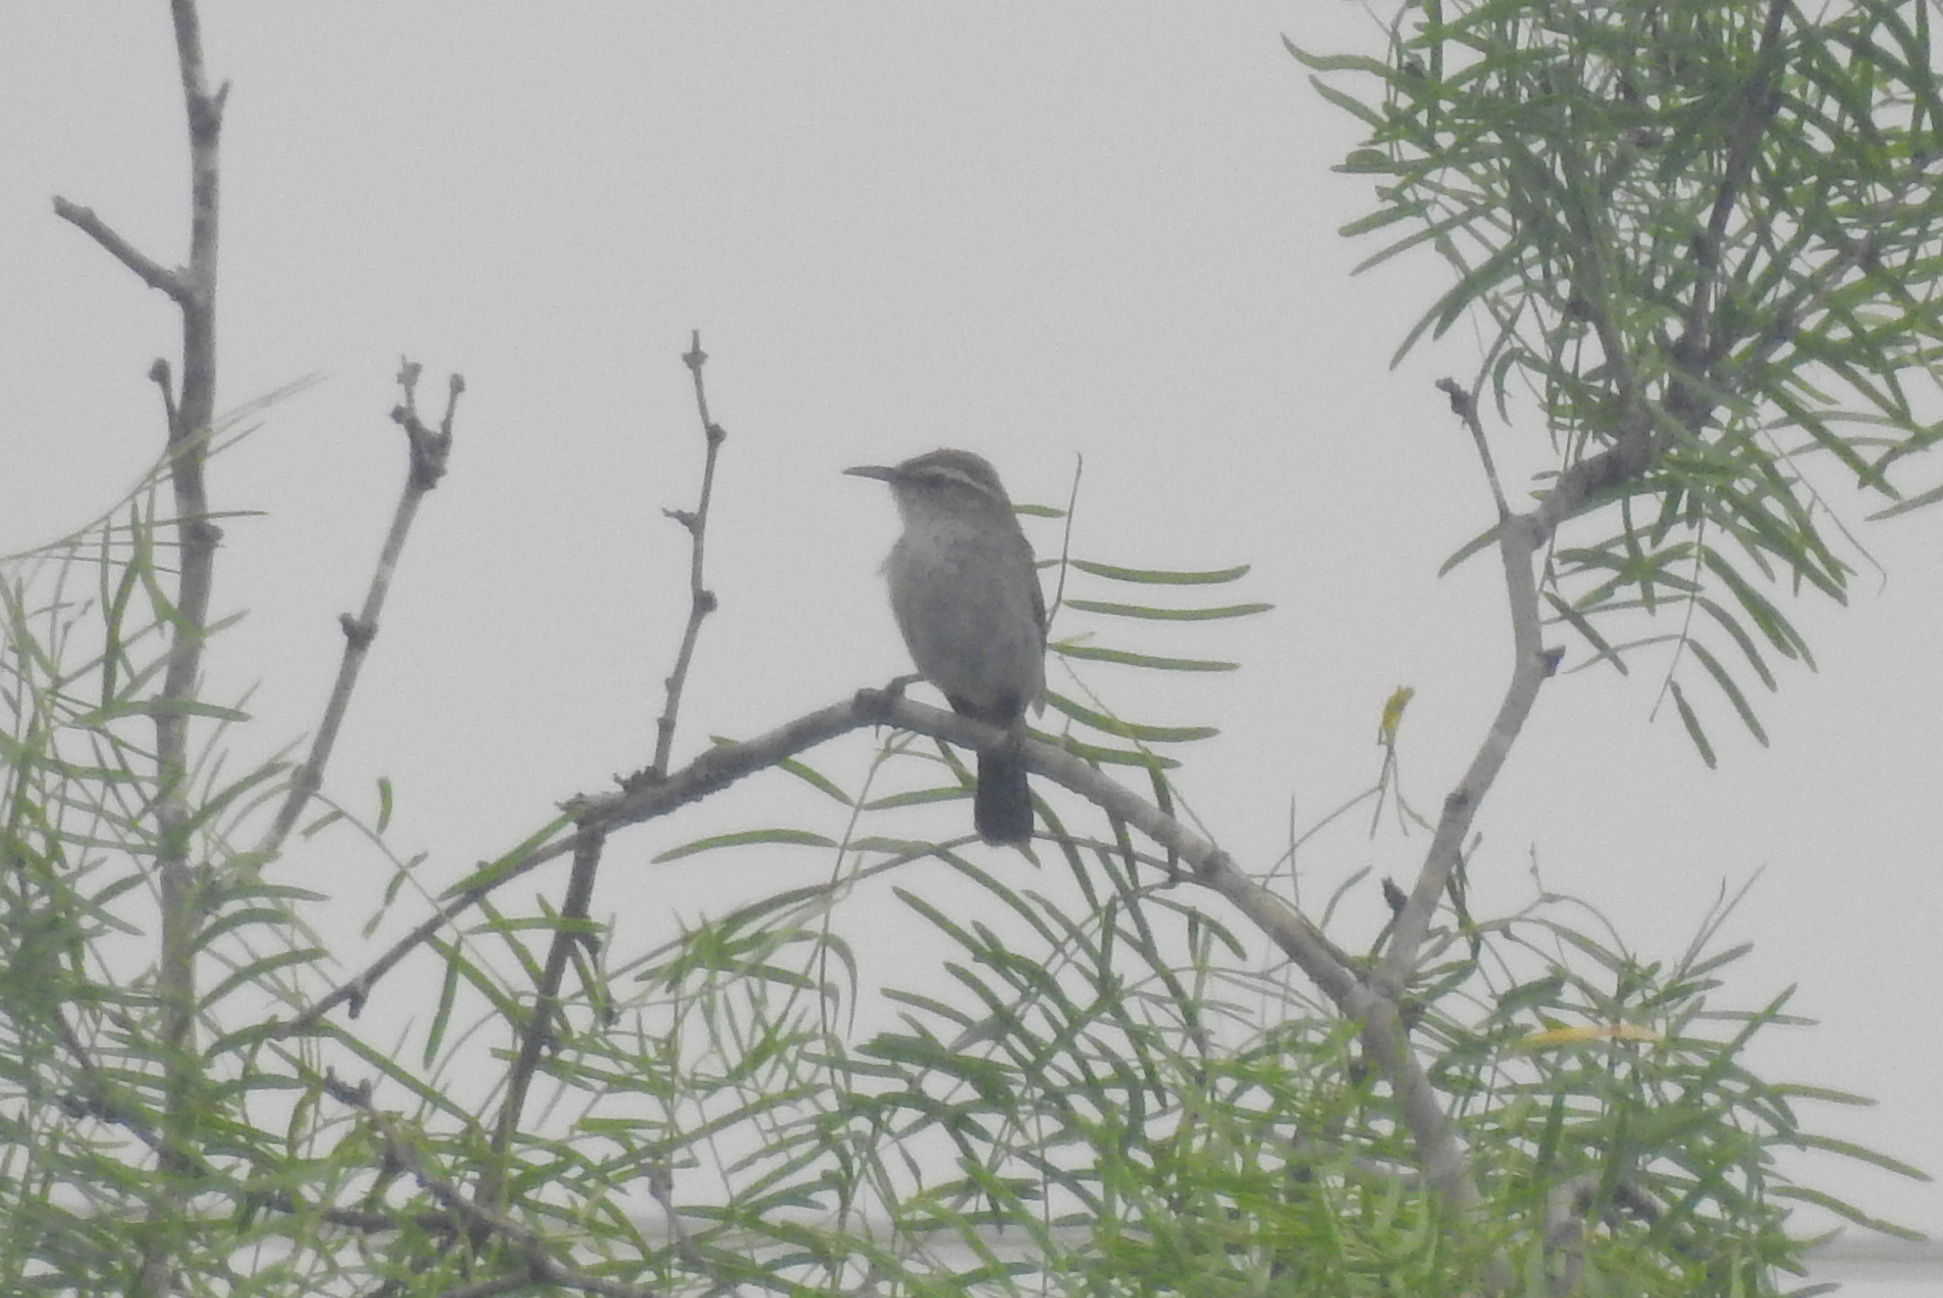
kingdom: Animalia
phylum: Chordata
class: Aves
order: Passeriformes
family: Troglodytidae
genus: Thryomanes
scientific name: Thryomanes bewickii
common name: Bewick's wren
